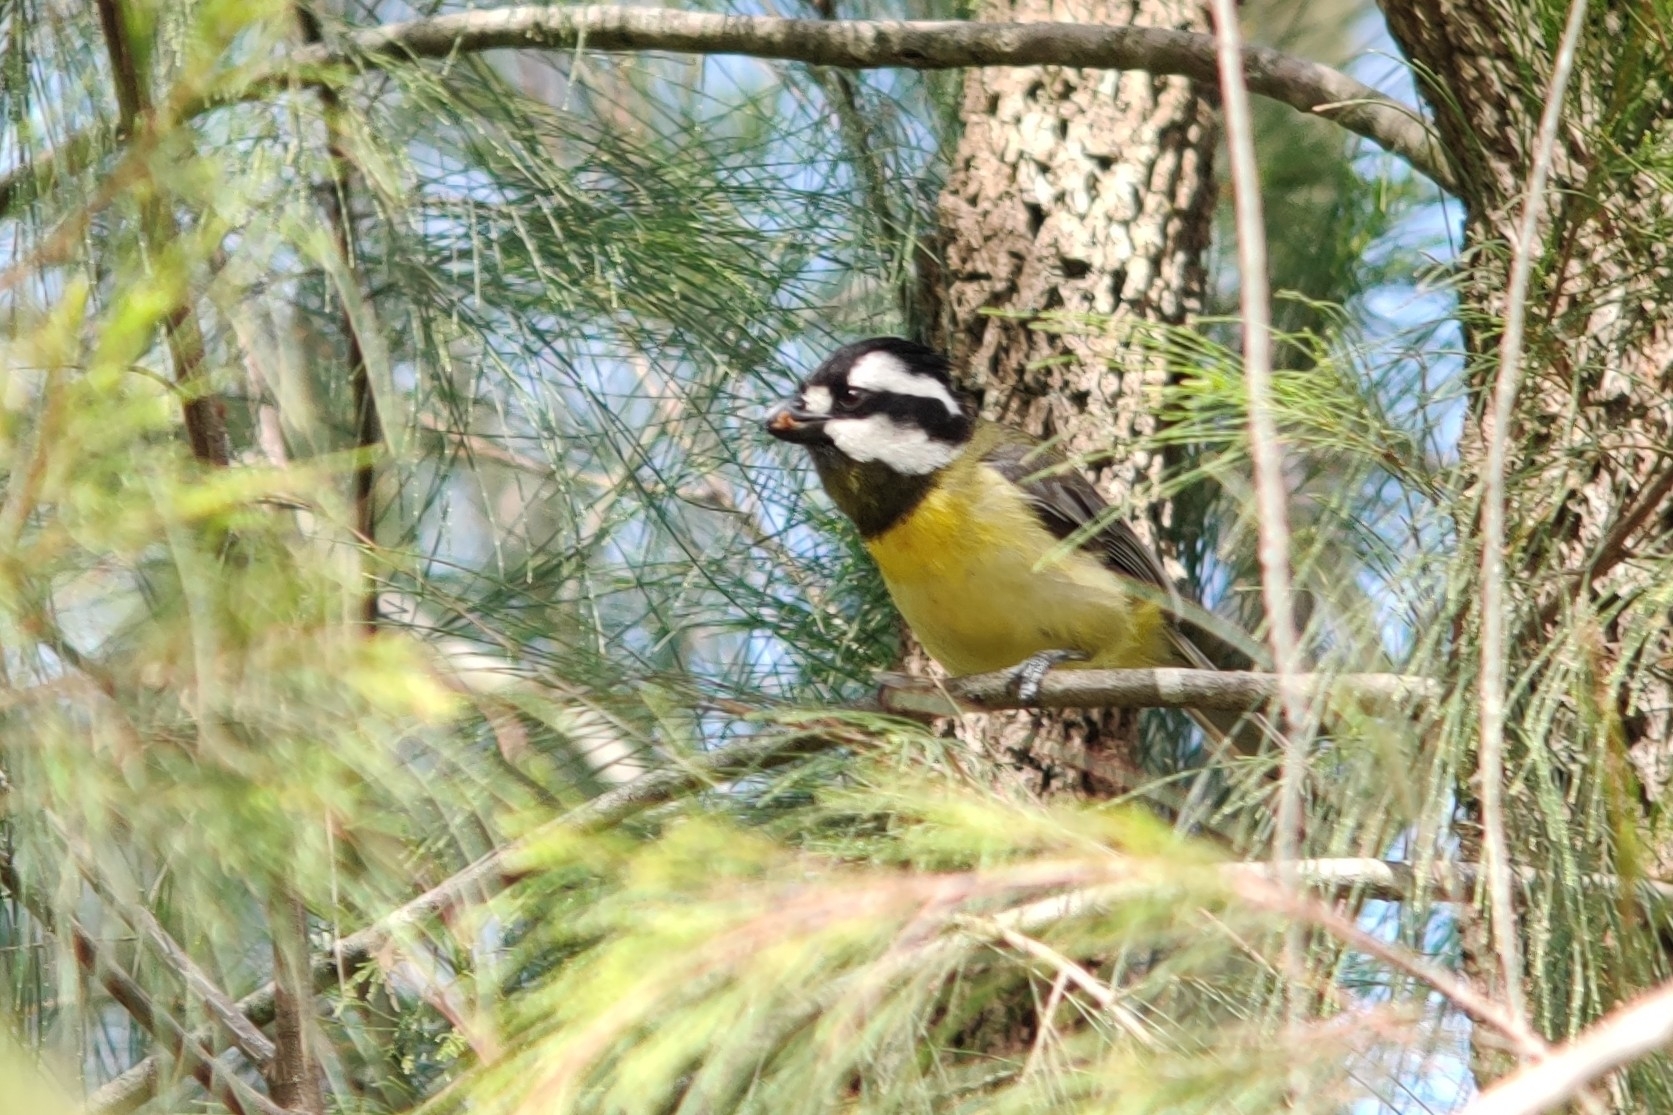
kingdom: Animalia
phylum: Chordata
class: Aves
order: Passeriformes
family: Pachycephalidae
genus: Falcunculus
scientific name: Falcunculus frontatus
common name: Crested shriketit
